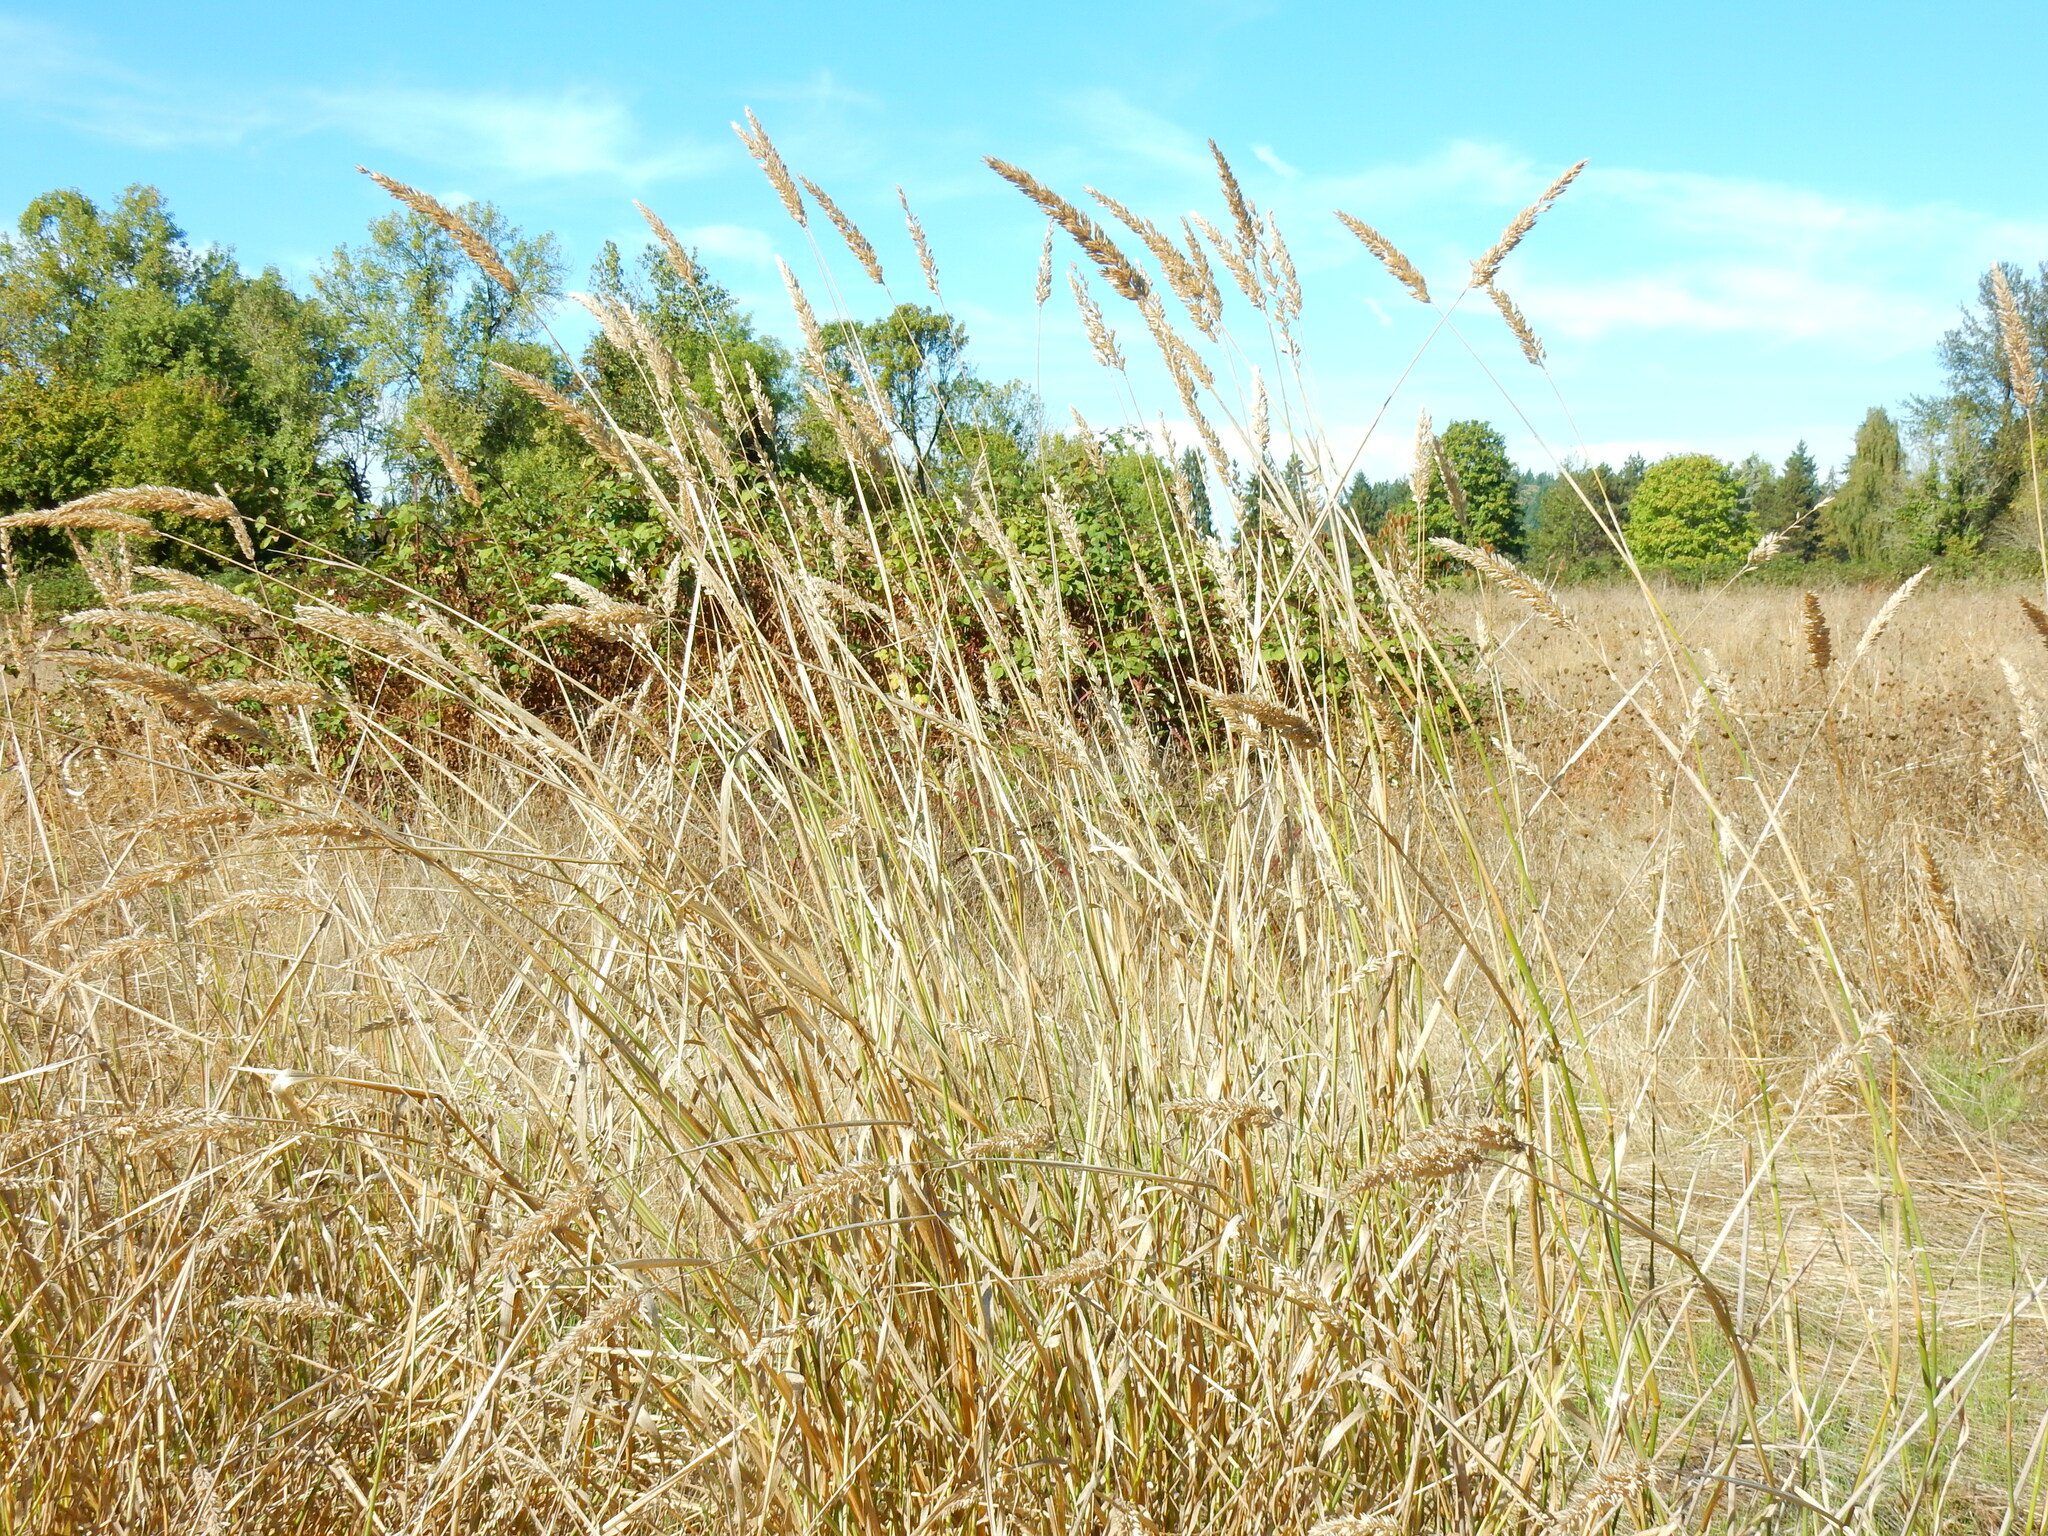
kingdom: Plantae
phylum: Tracheophyta
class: Liliopsida
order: Poales
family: Poaceae
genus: Phalaris
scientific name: Phalaris arundinacea
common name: Reed canary-grass
